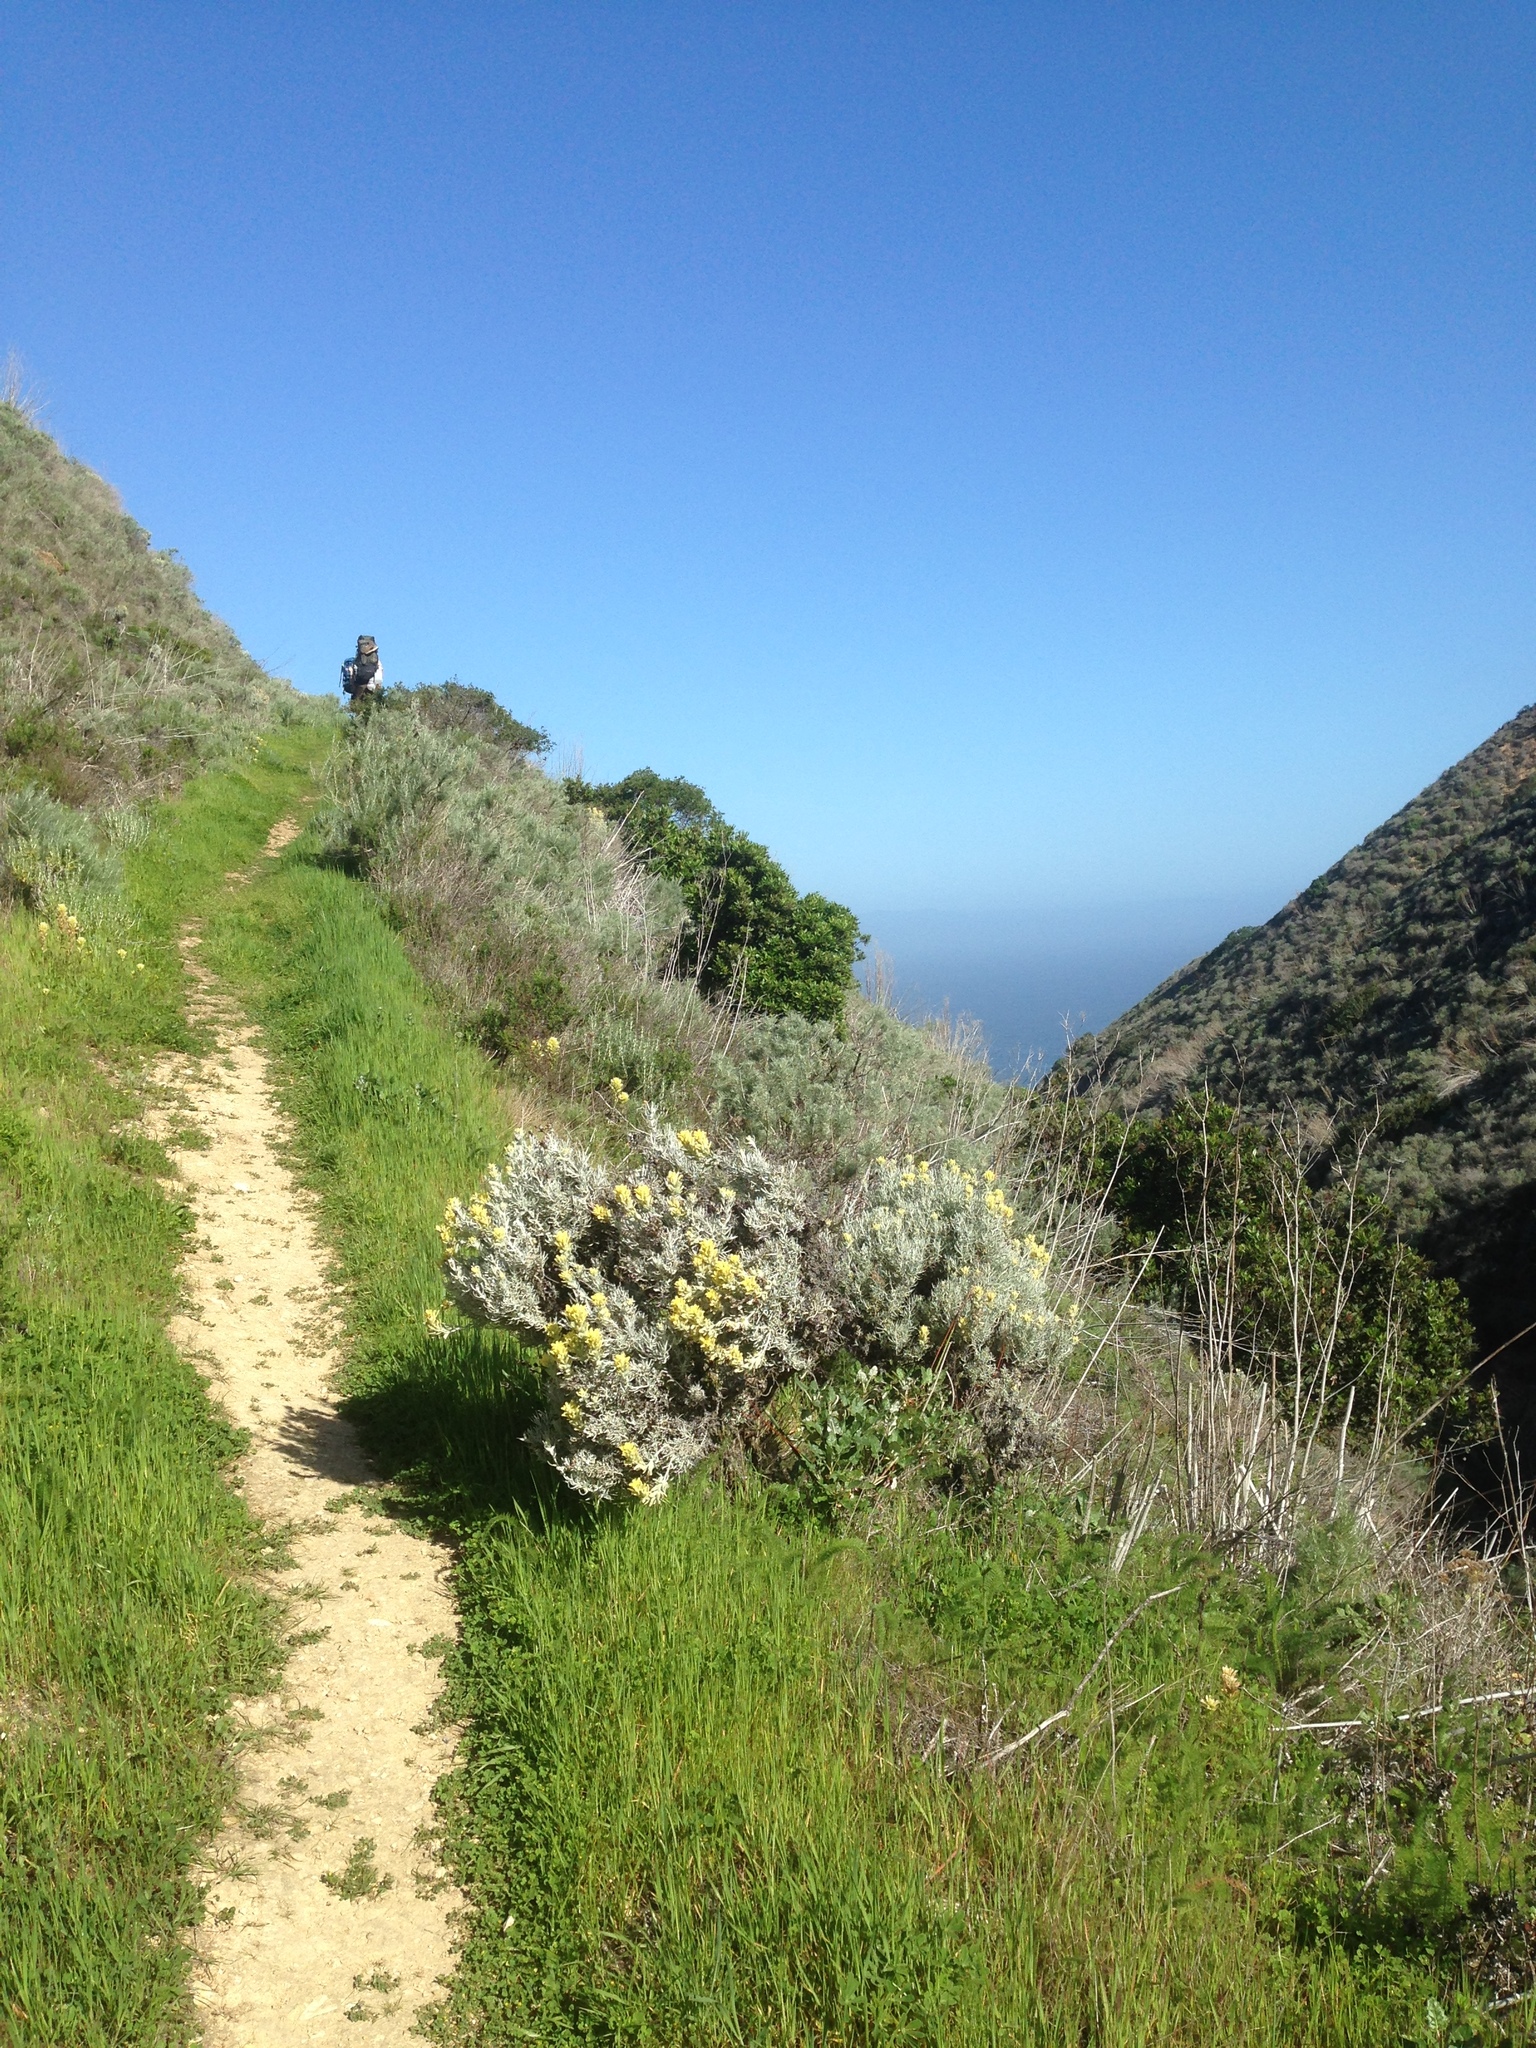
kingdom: Plantae
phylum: Tracheophyta
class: Magnoliopsida
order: Lamiales
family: Orobanchaceae
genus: Castilleja
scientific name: Castilleja hololeuca
